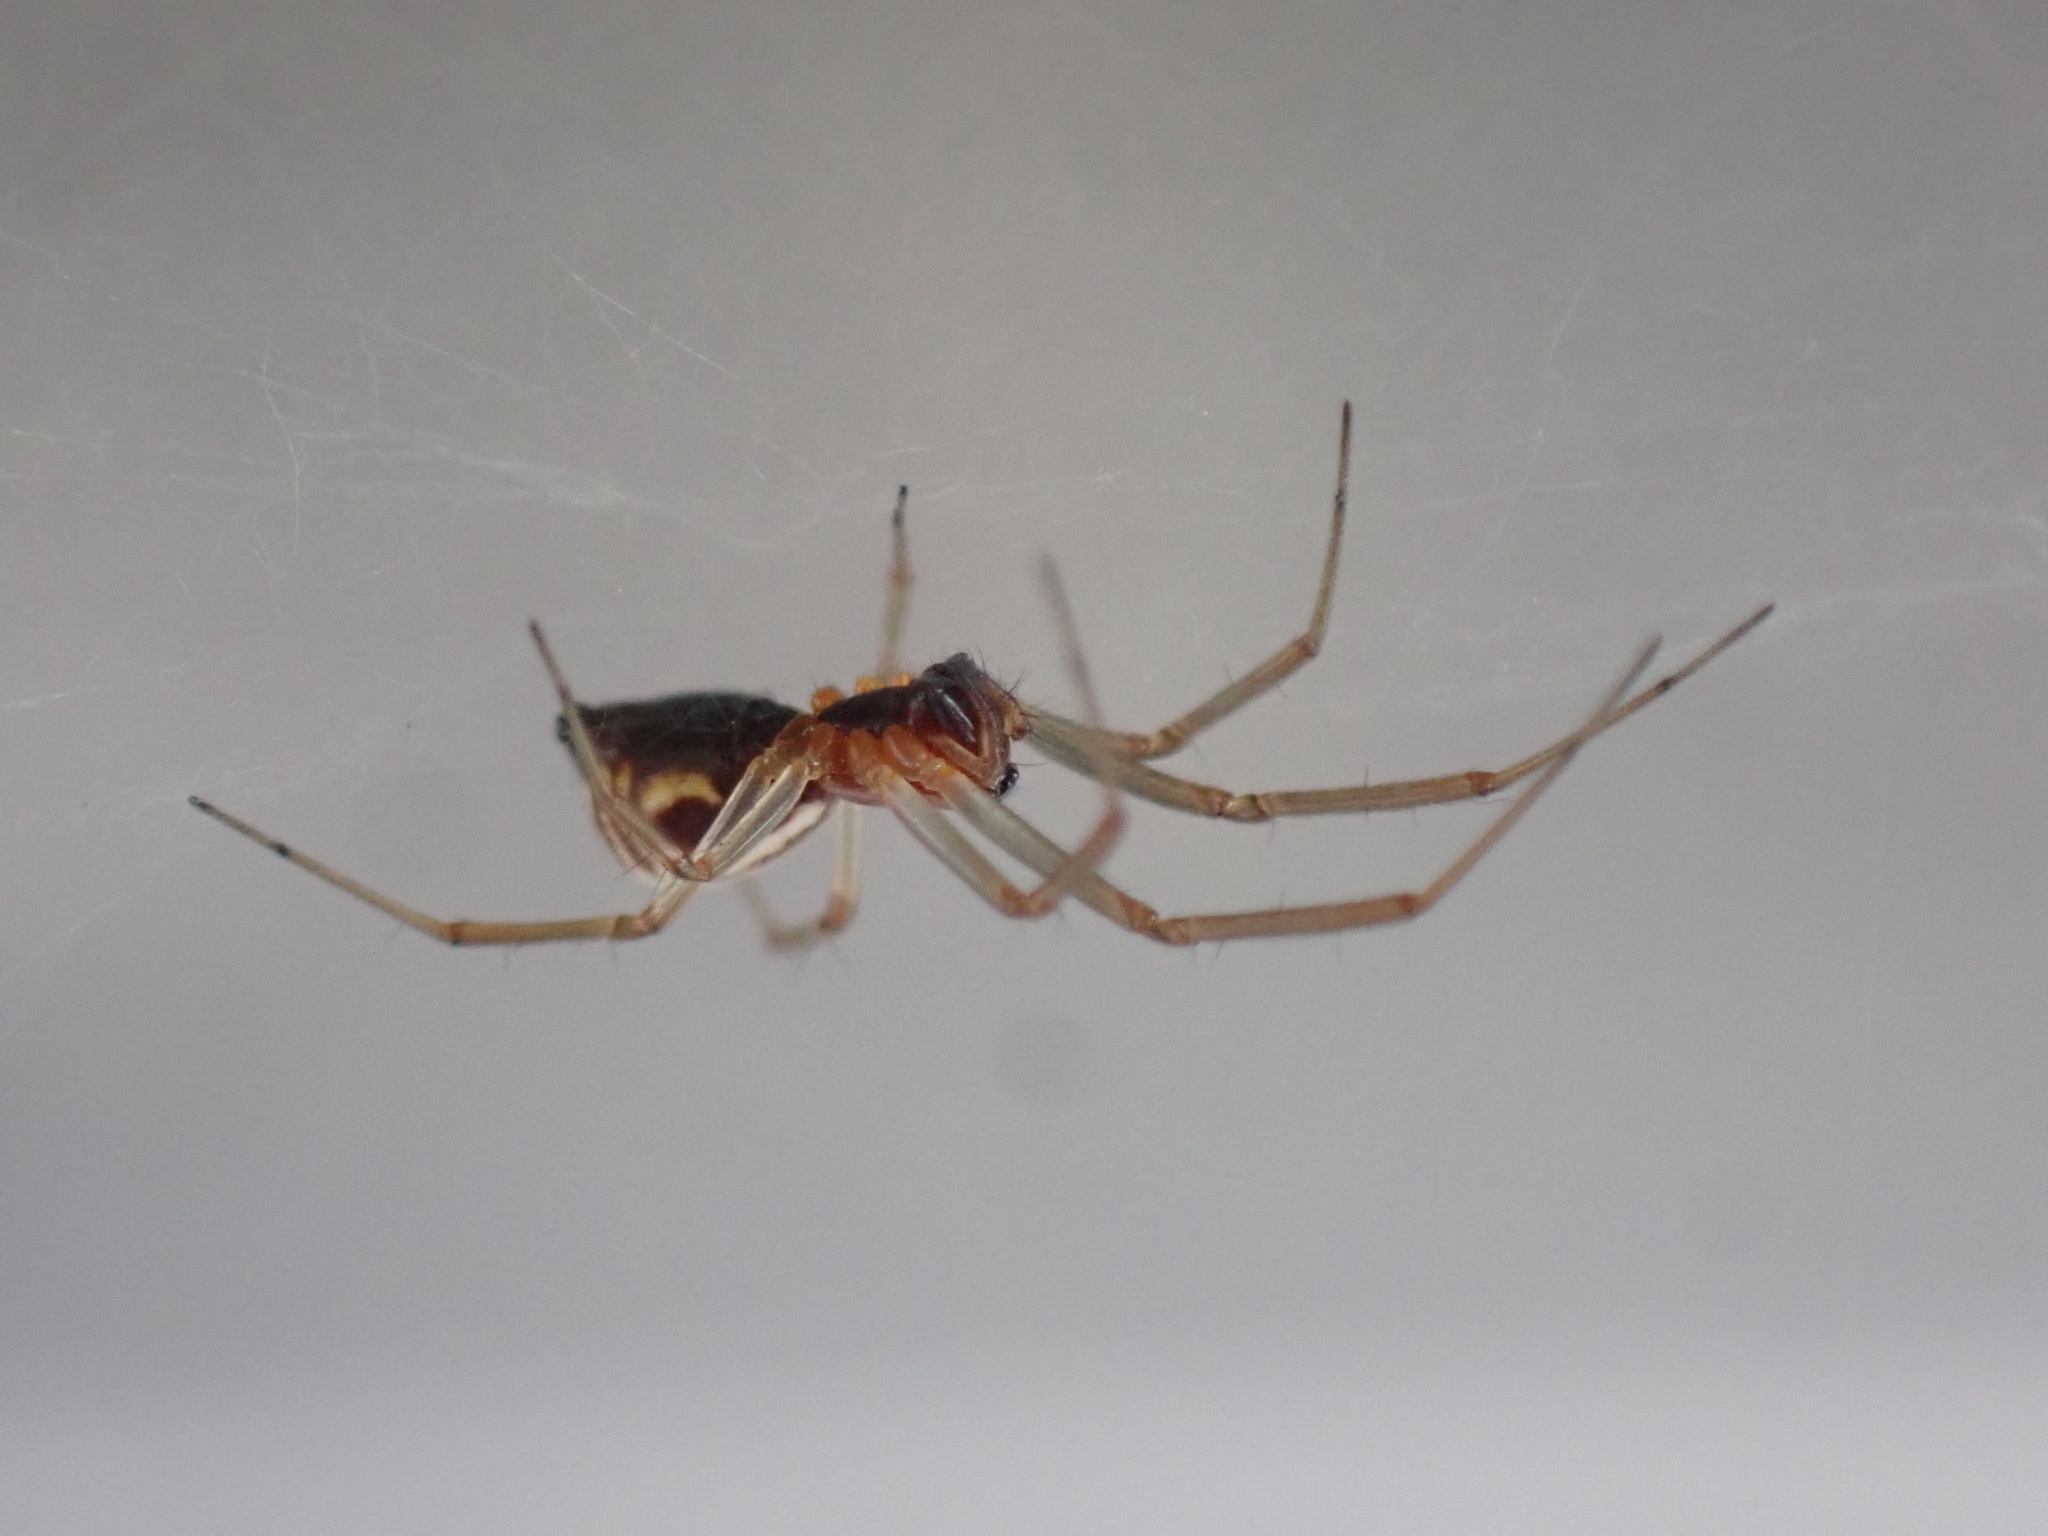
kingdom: Animalia
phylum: Arthropoda
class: Arachnida
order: Araneae
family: Linyphiidae
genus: Frontinella
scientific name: Frontinella pyramitela
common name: Bowl-and-doily spider
